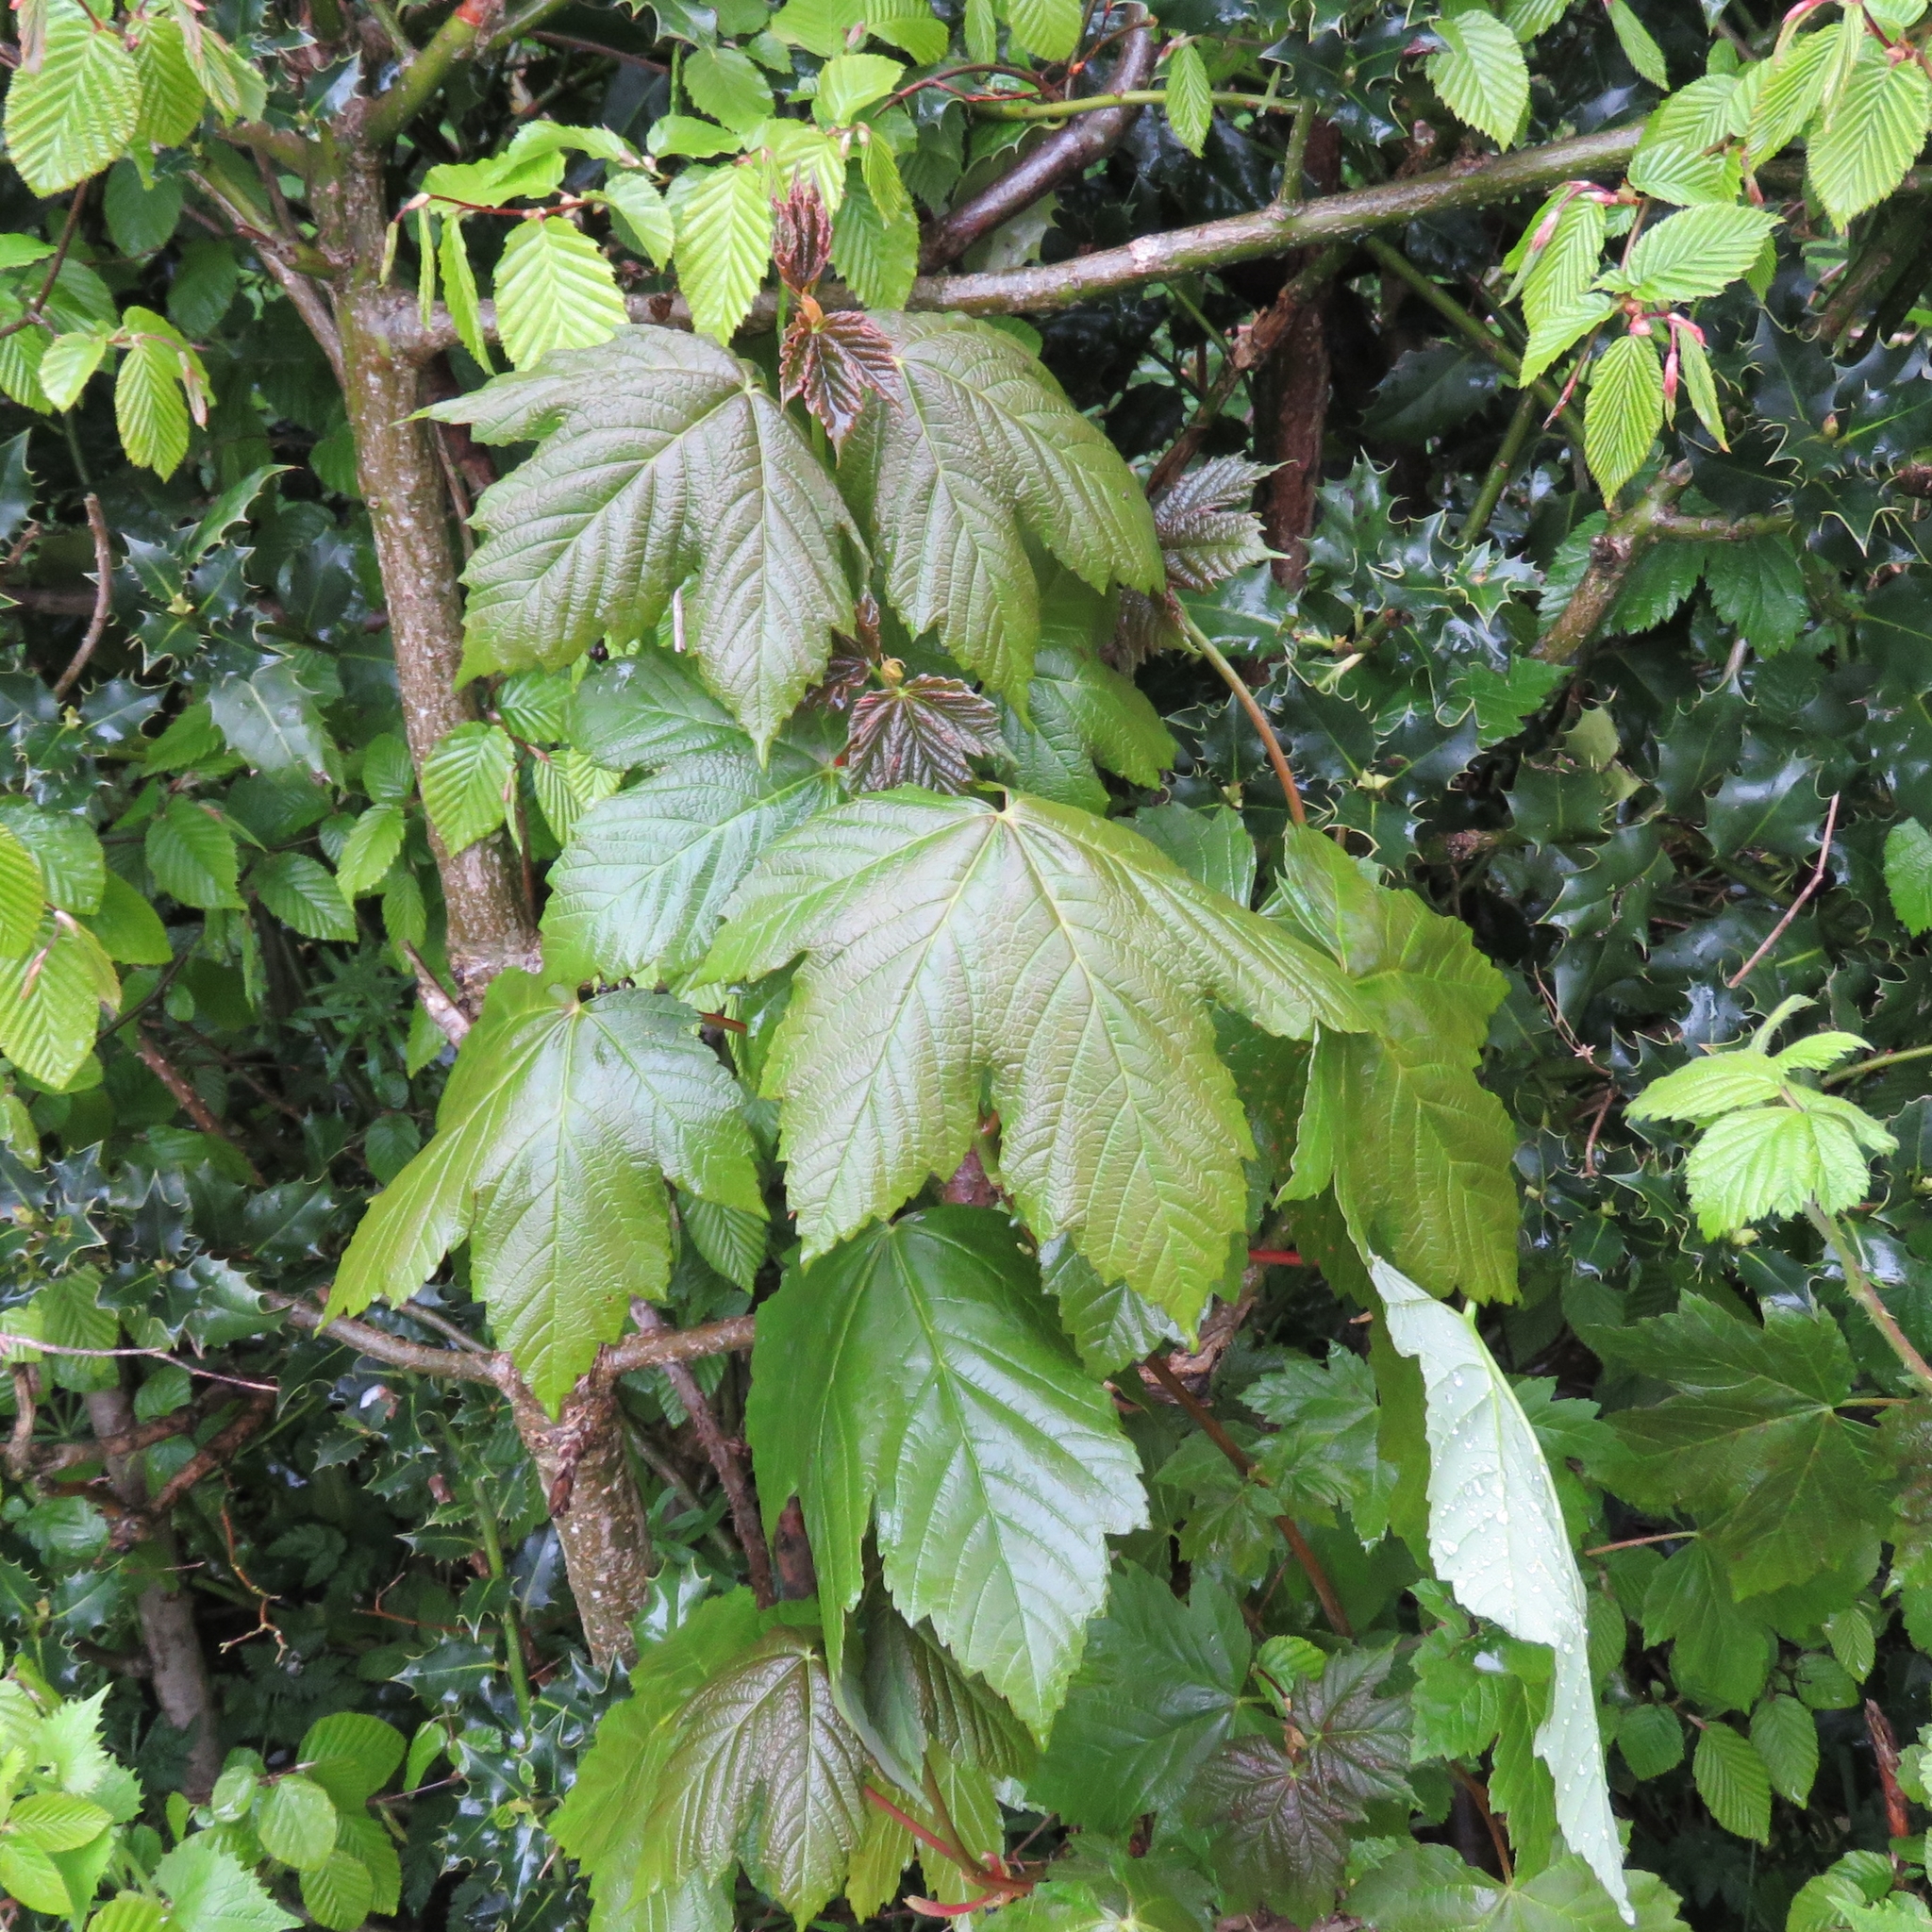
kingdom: Plantae
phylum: Tracheophyta
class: Magnoliopsida
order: Sapindales
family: Sapindaceae
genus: Acer
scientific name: Acer pseudoplatanus
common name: Sycamore
